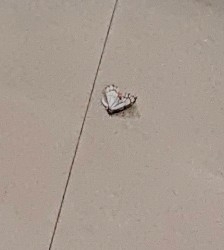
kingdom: Animalia
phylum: Arthropoda
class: Insecta
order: Lepidoptera
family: Pieridae
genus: Delias
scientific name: Delias eucharis
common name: Common jezebel
